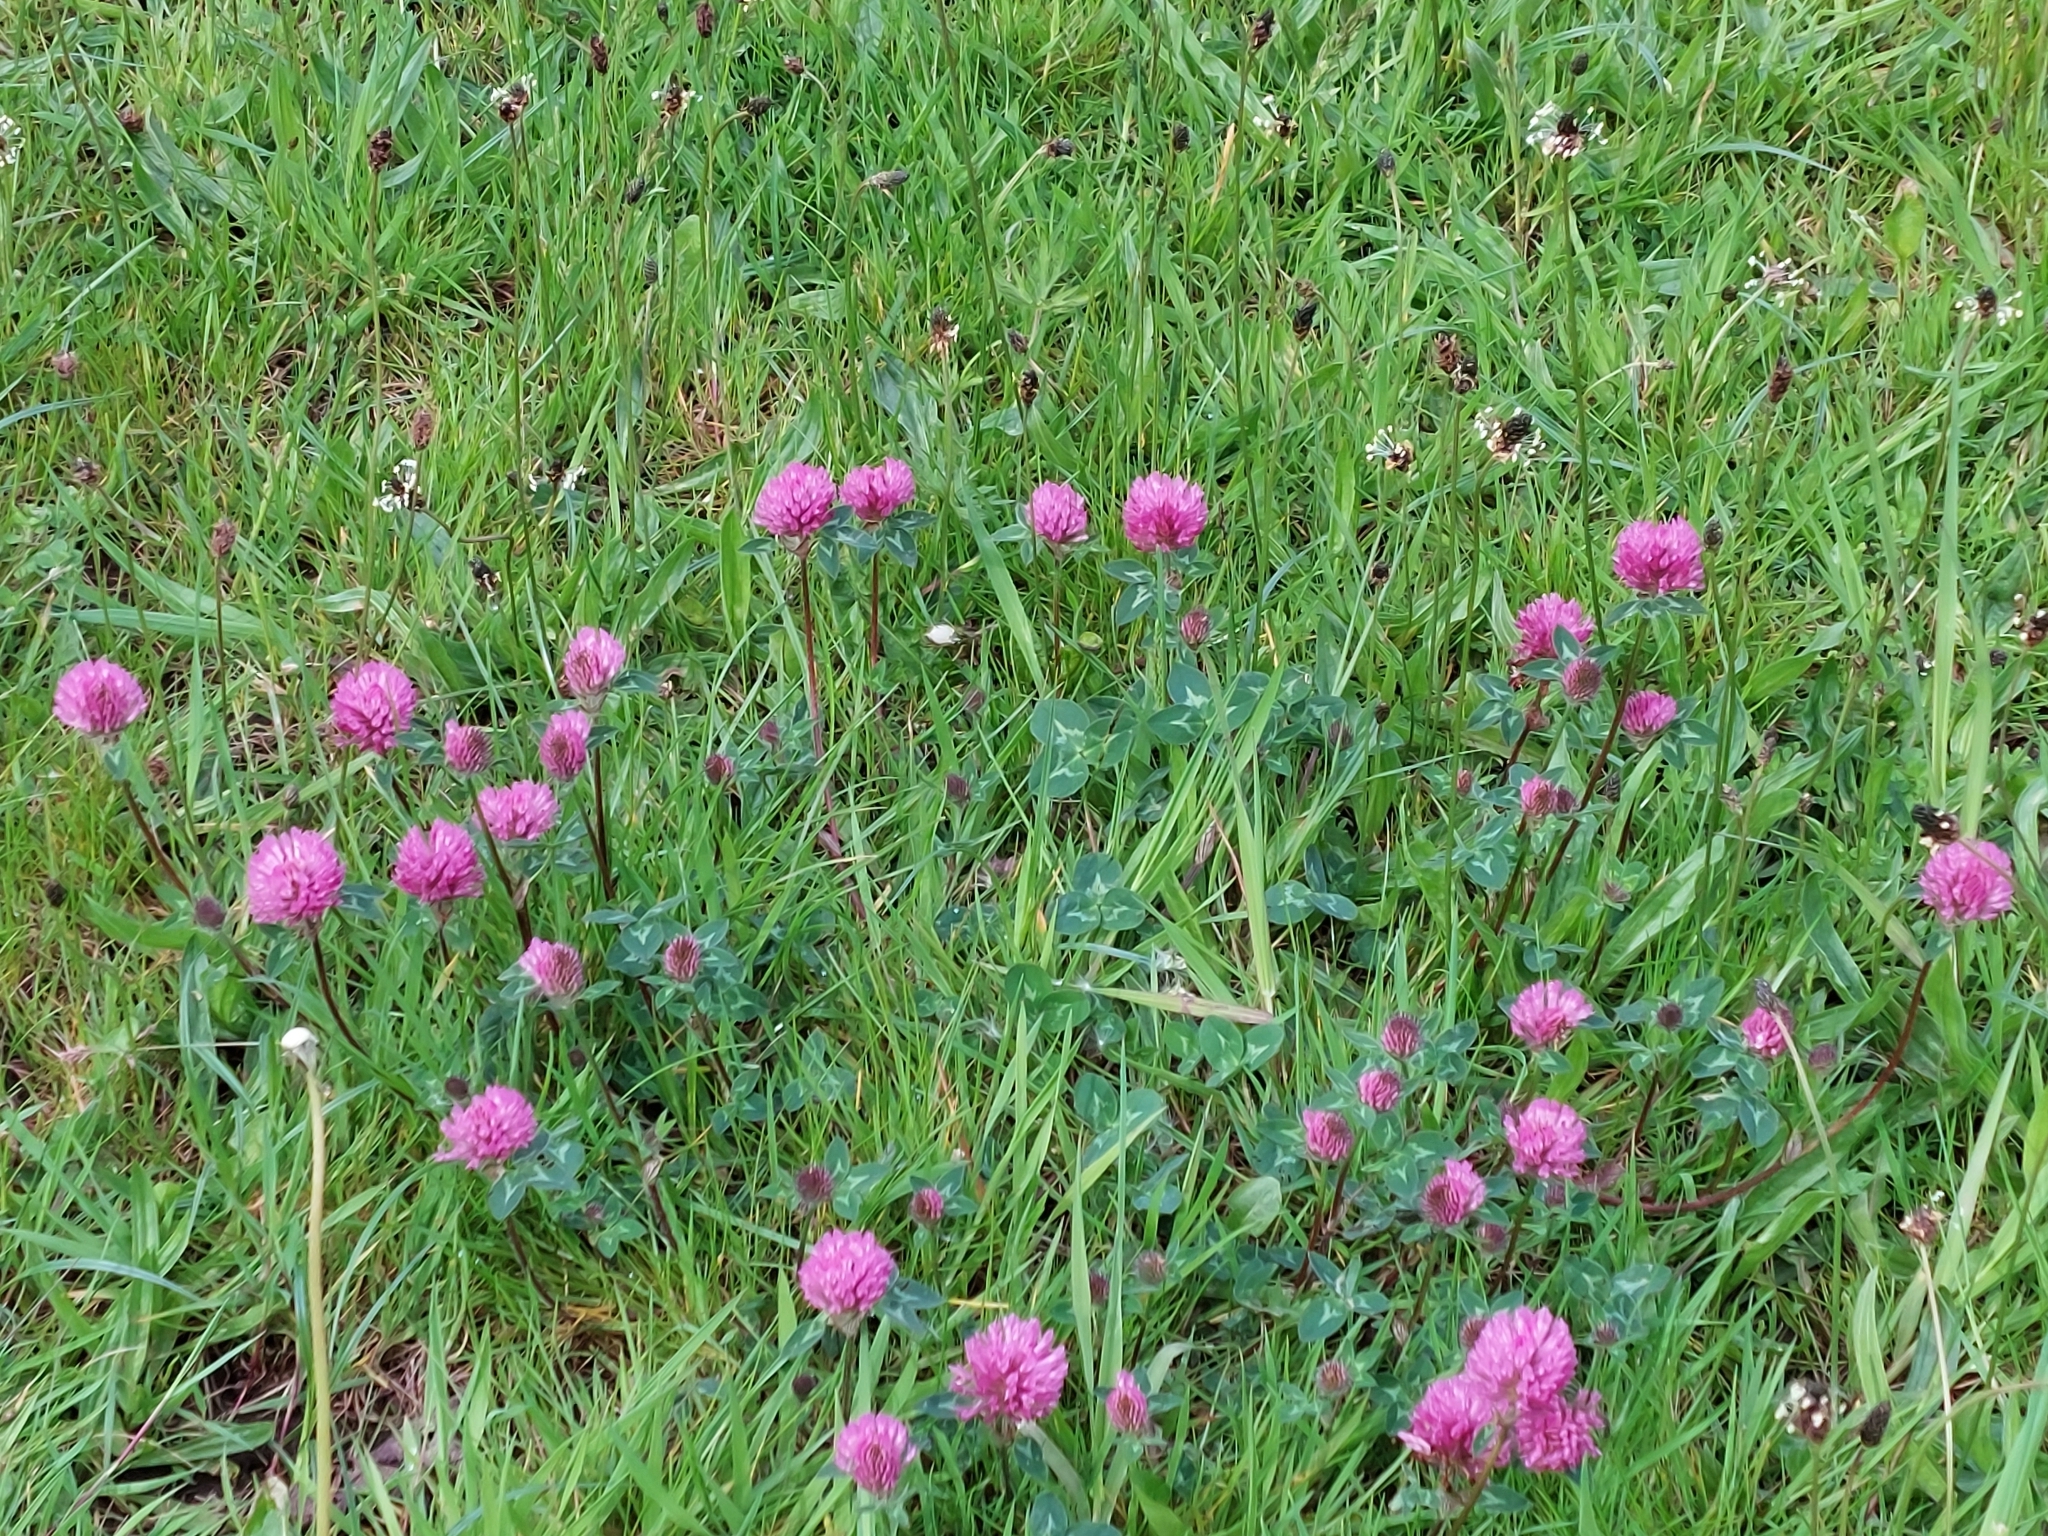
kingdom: Plantae
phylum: Tracheophyta
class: Magnoliopsida
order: Fabales
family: Fabaceae
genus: Trifolium
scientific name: Trifolium pratense
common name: Red clover
